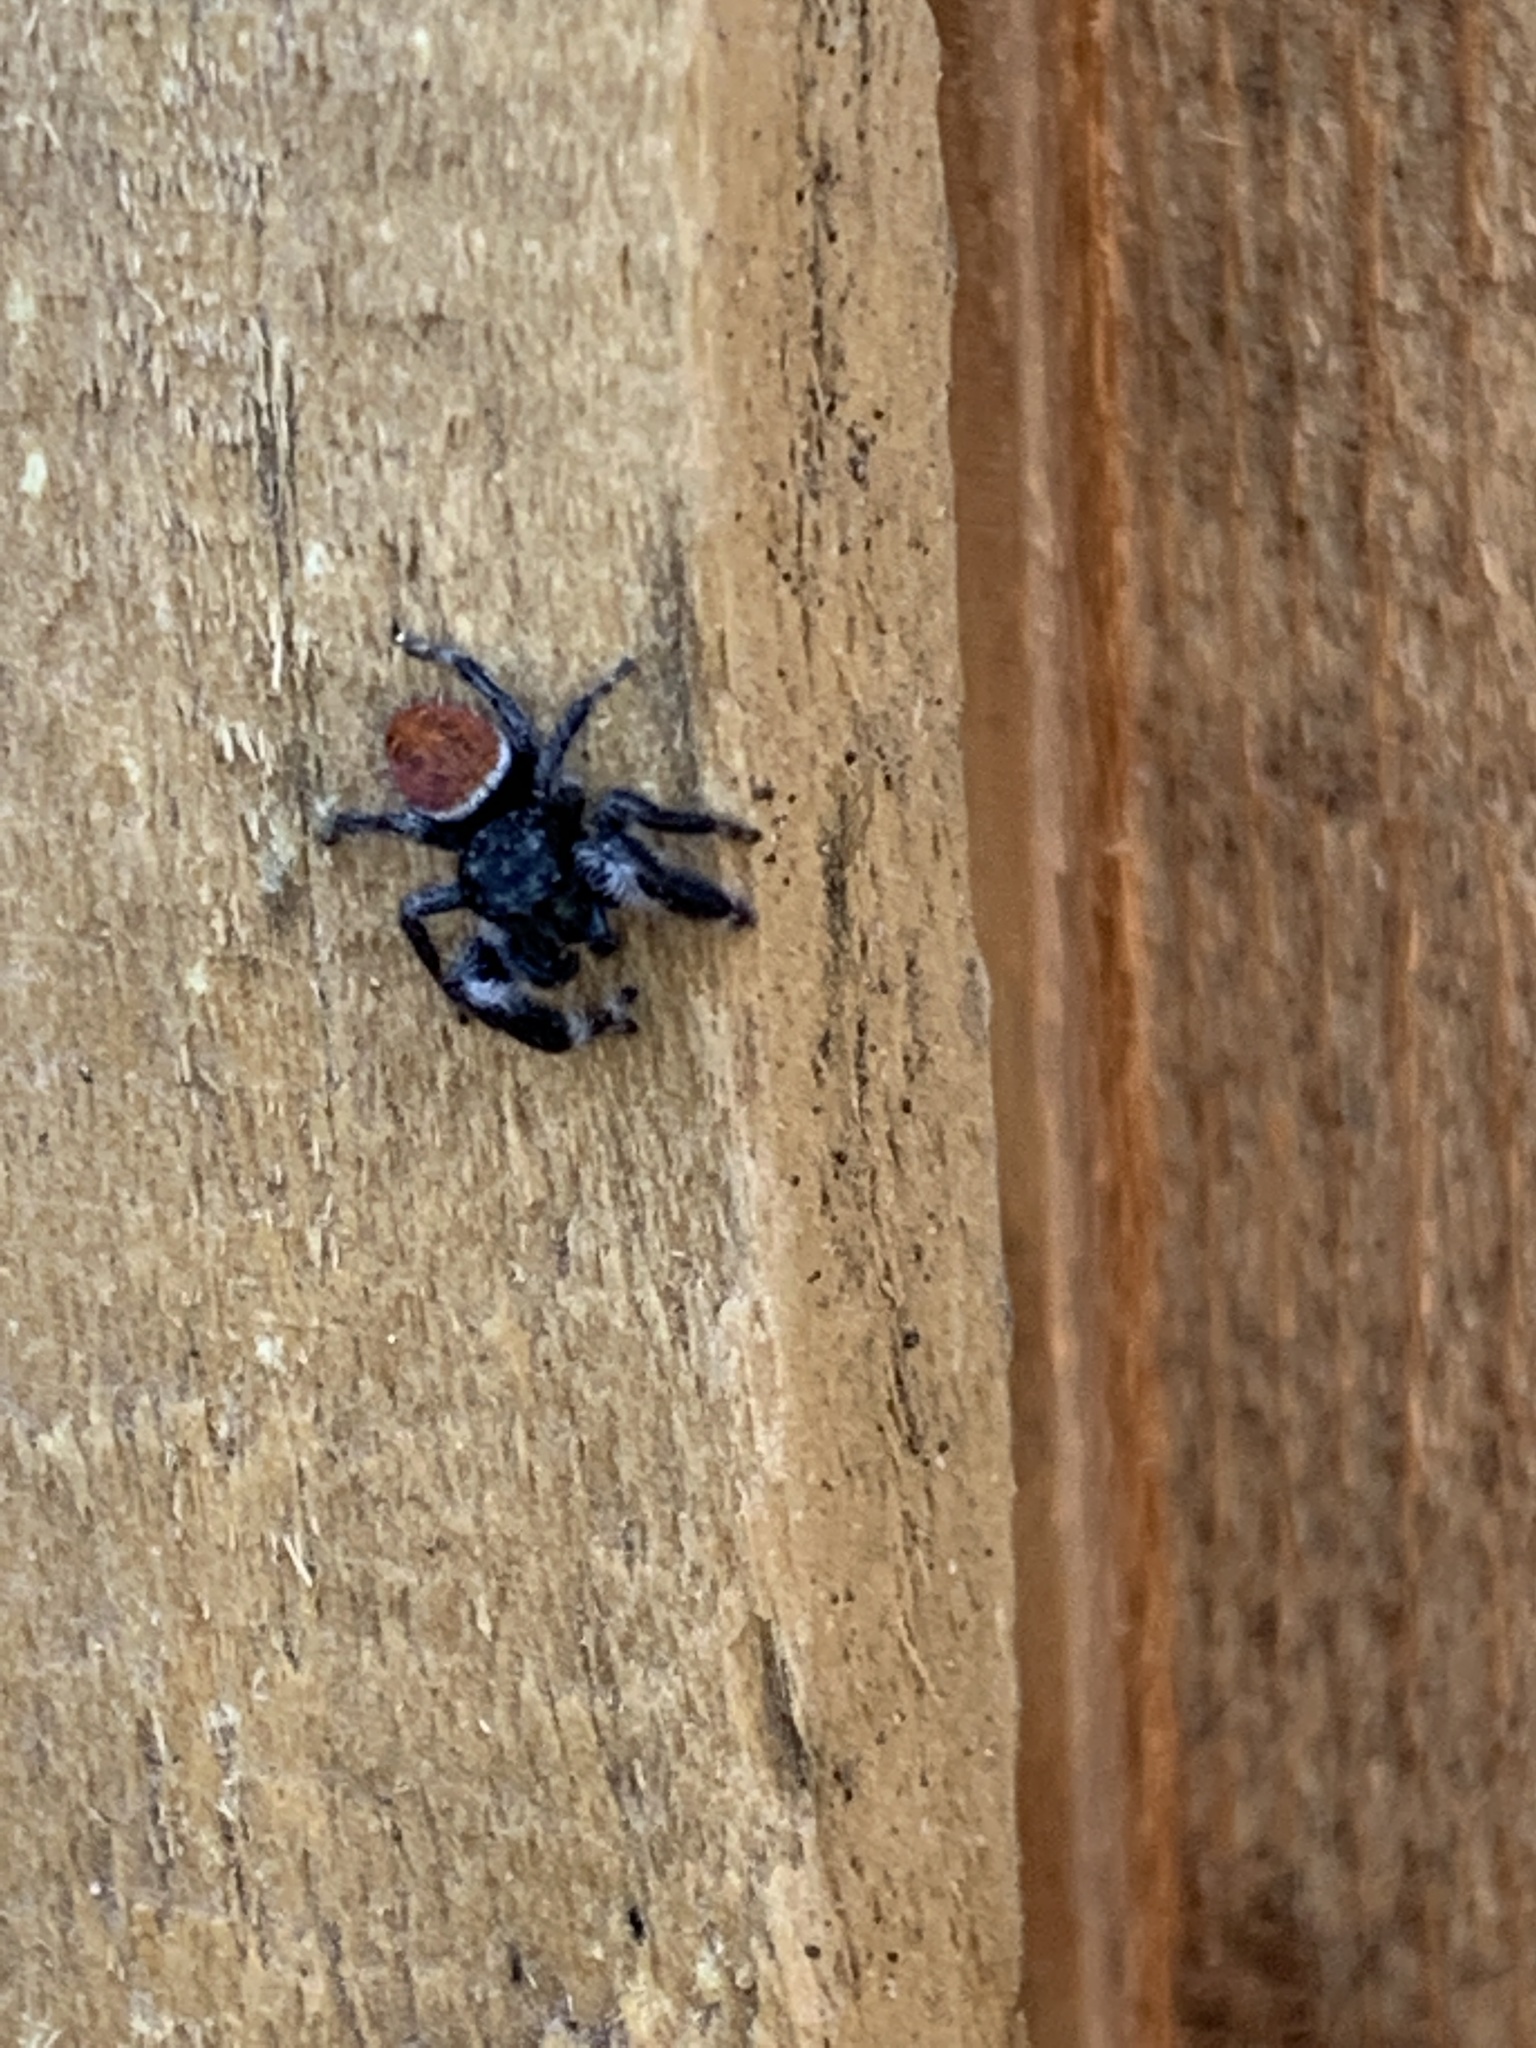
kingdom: Animalia
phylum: Arthropoda
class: Arachnida
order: Araneae
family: Salticidae
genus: Phidippus
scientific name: Phidippus carneus
